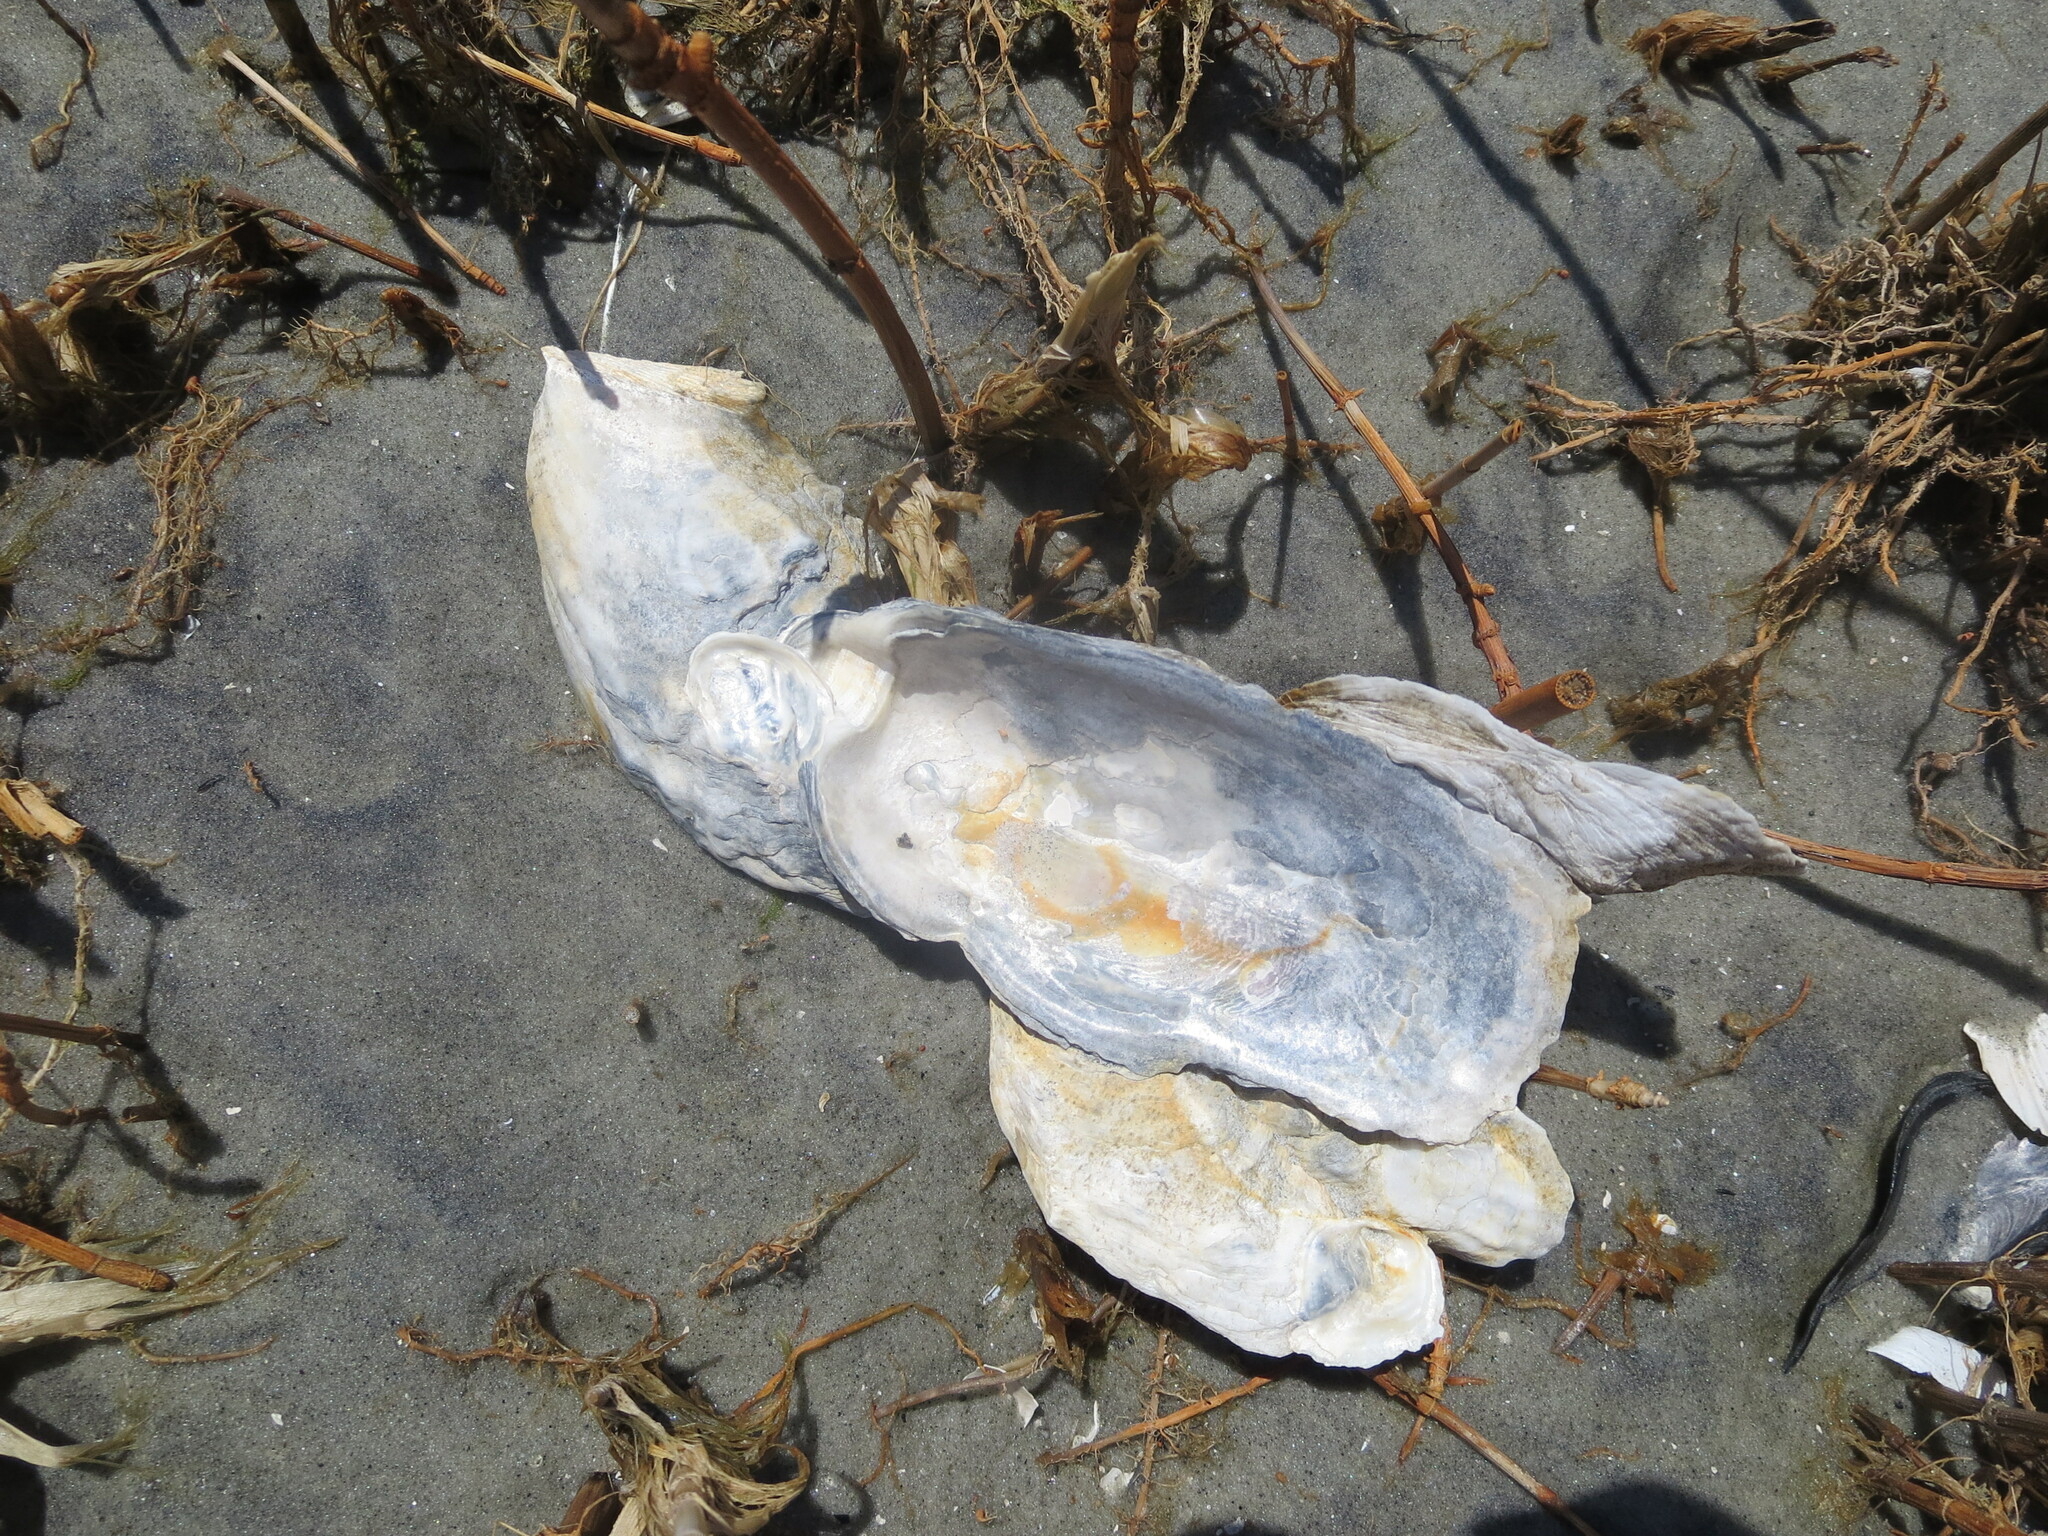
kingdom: Animalia
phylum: Mollusca
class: Bivalvia
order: Ostreida
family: Ostreidae
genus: Crassostrea
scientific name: Crassostrea virginica
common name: American oyster
